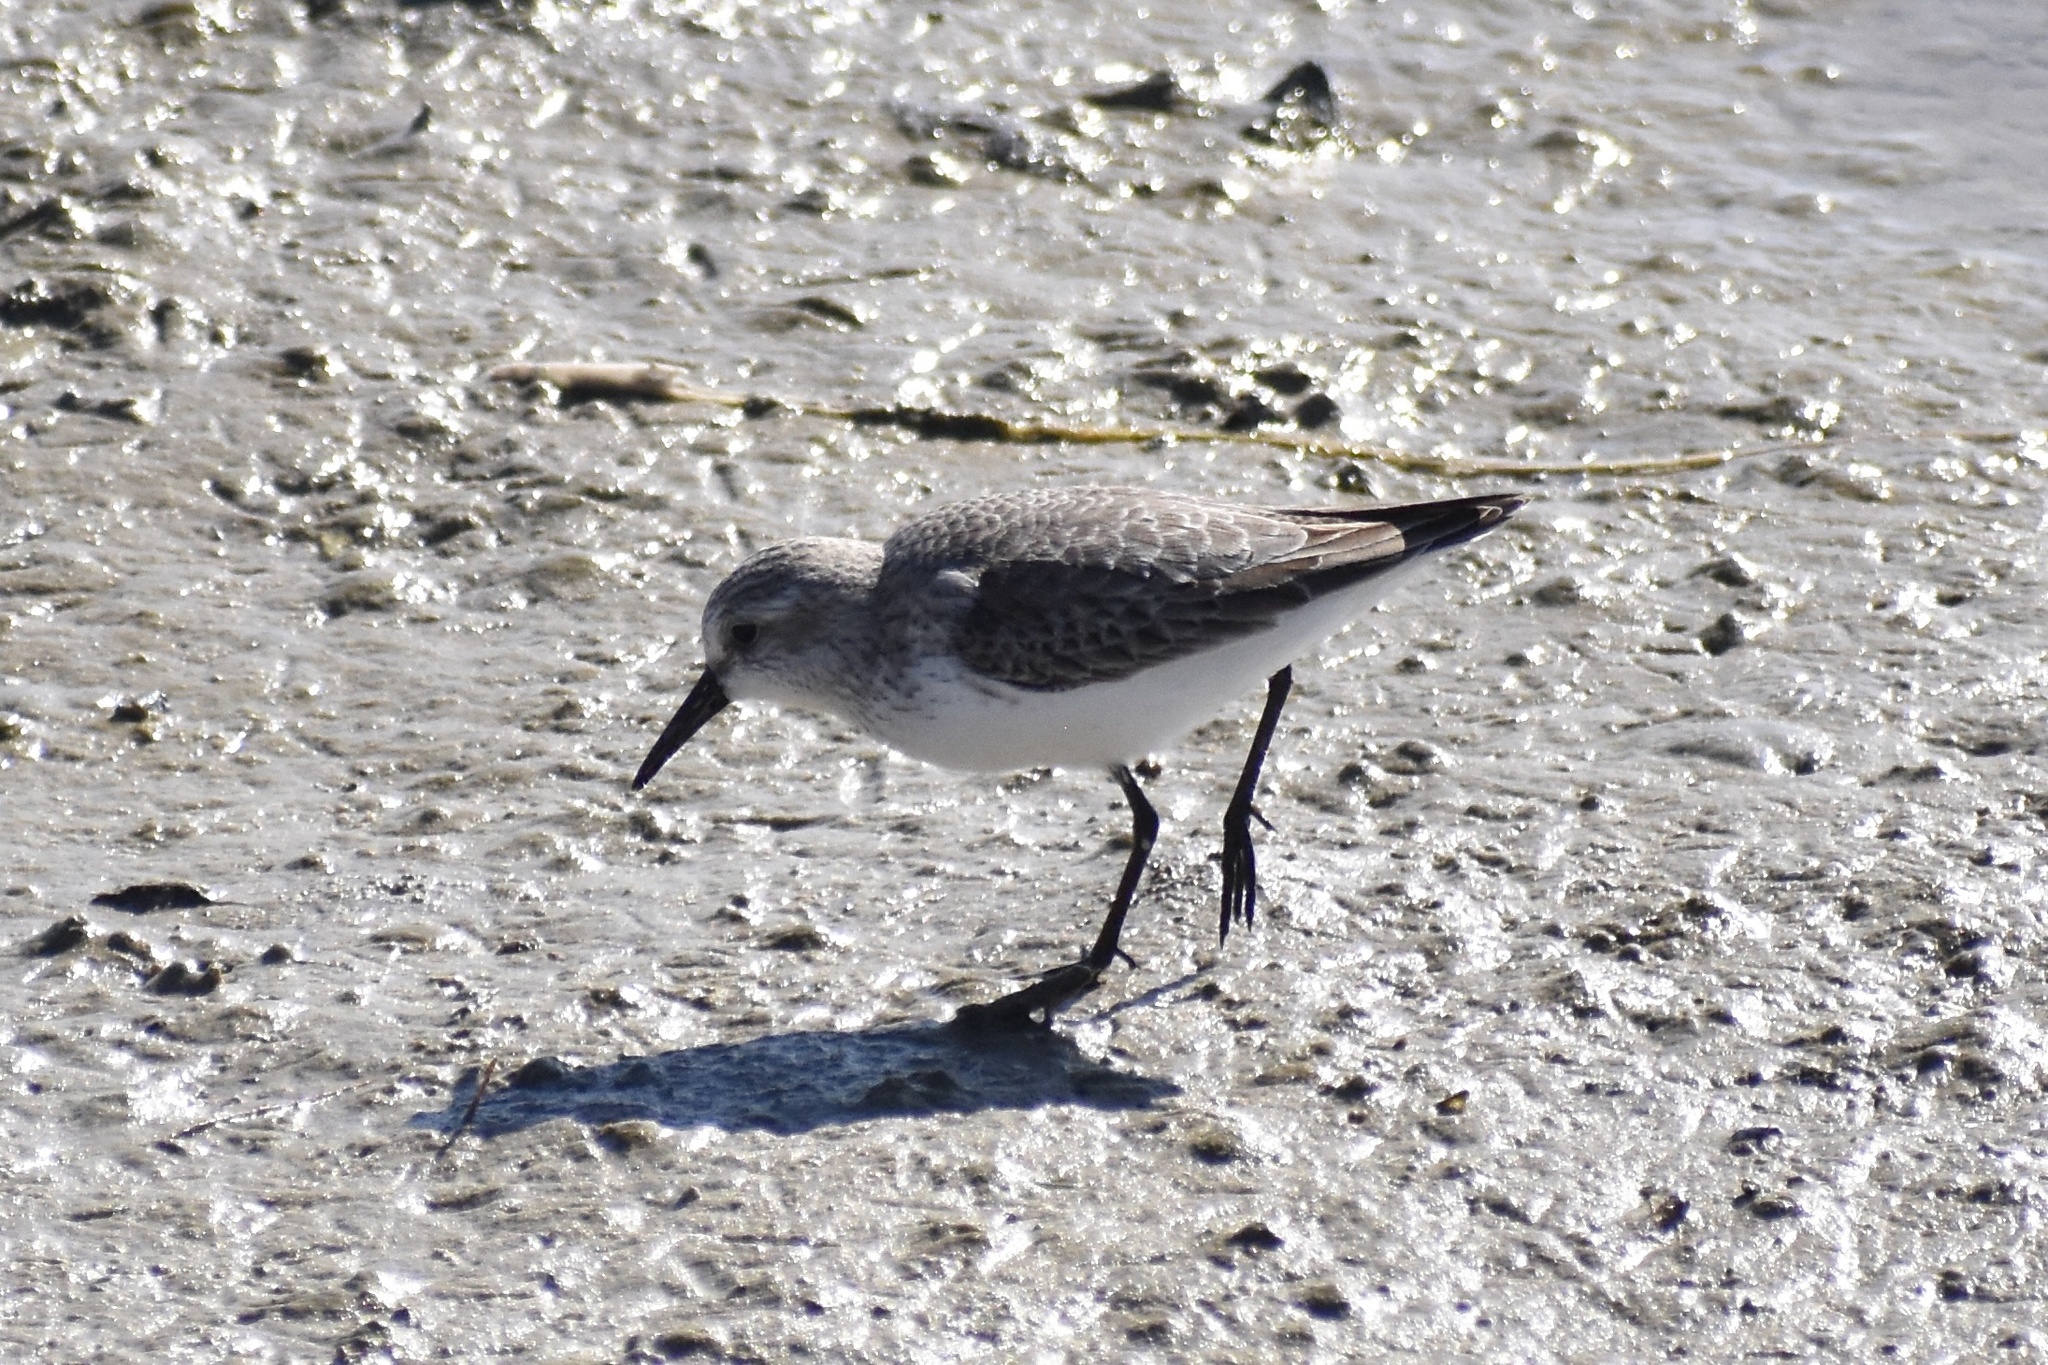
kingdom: Animalia
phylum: Chordata
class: Aves
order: Charadriiformes
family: Scolopacidae
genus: Calidris
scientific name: Calidris mauri
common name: Western sandpiper
